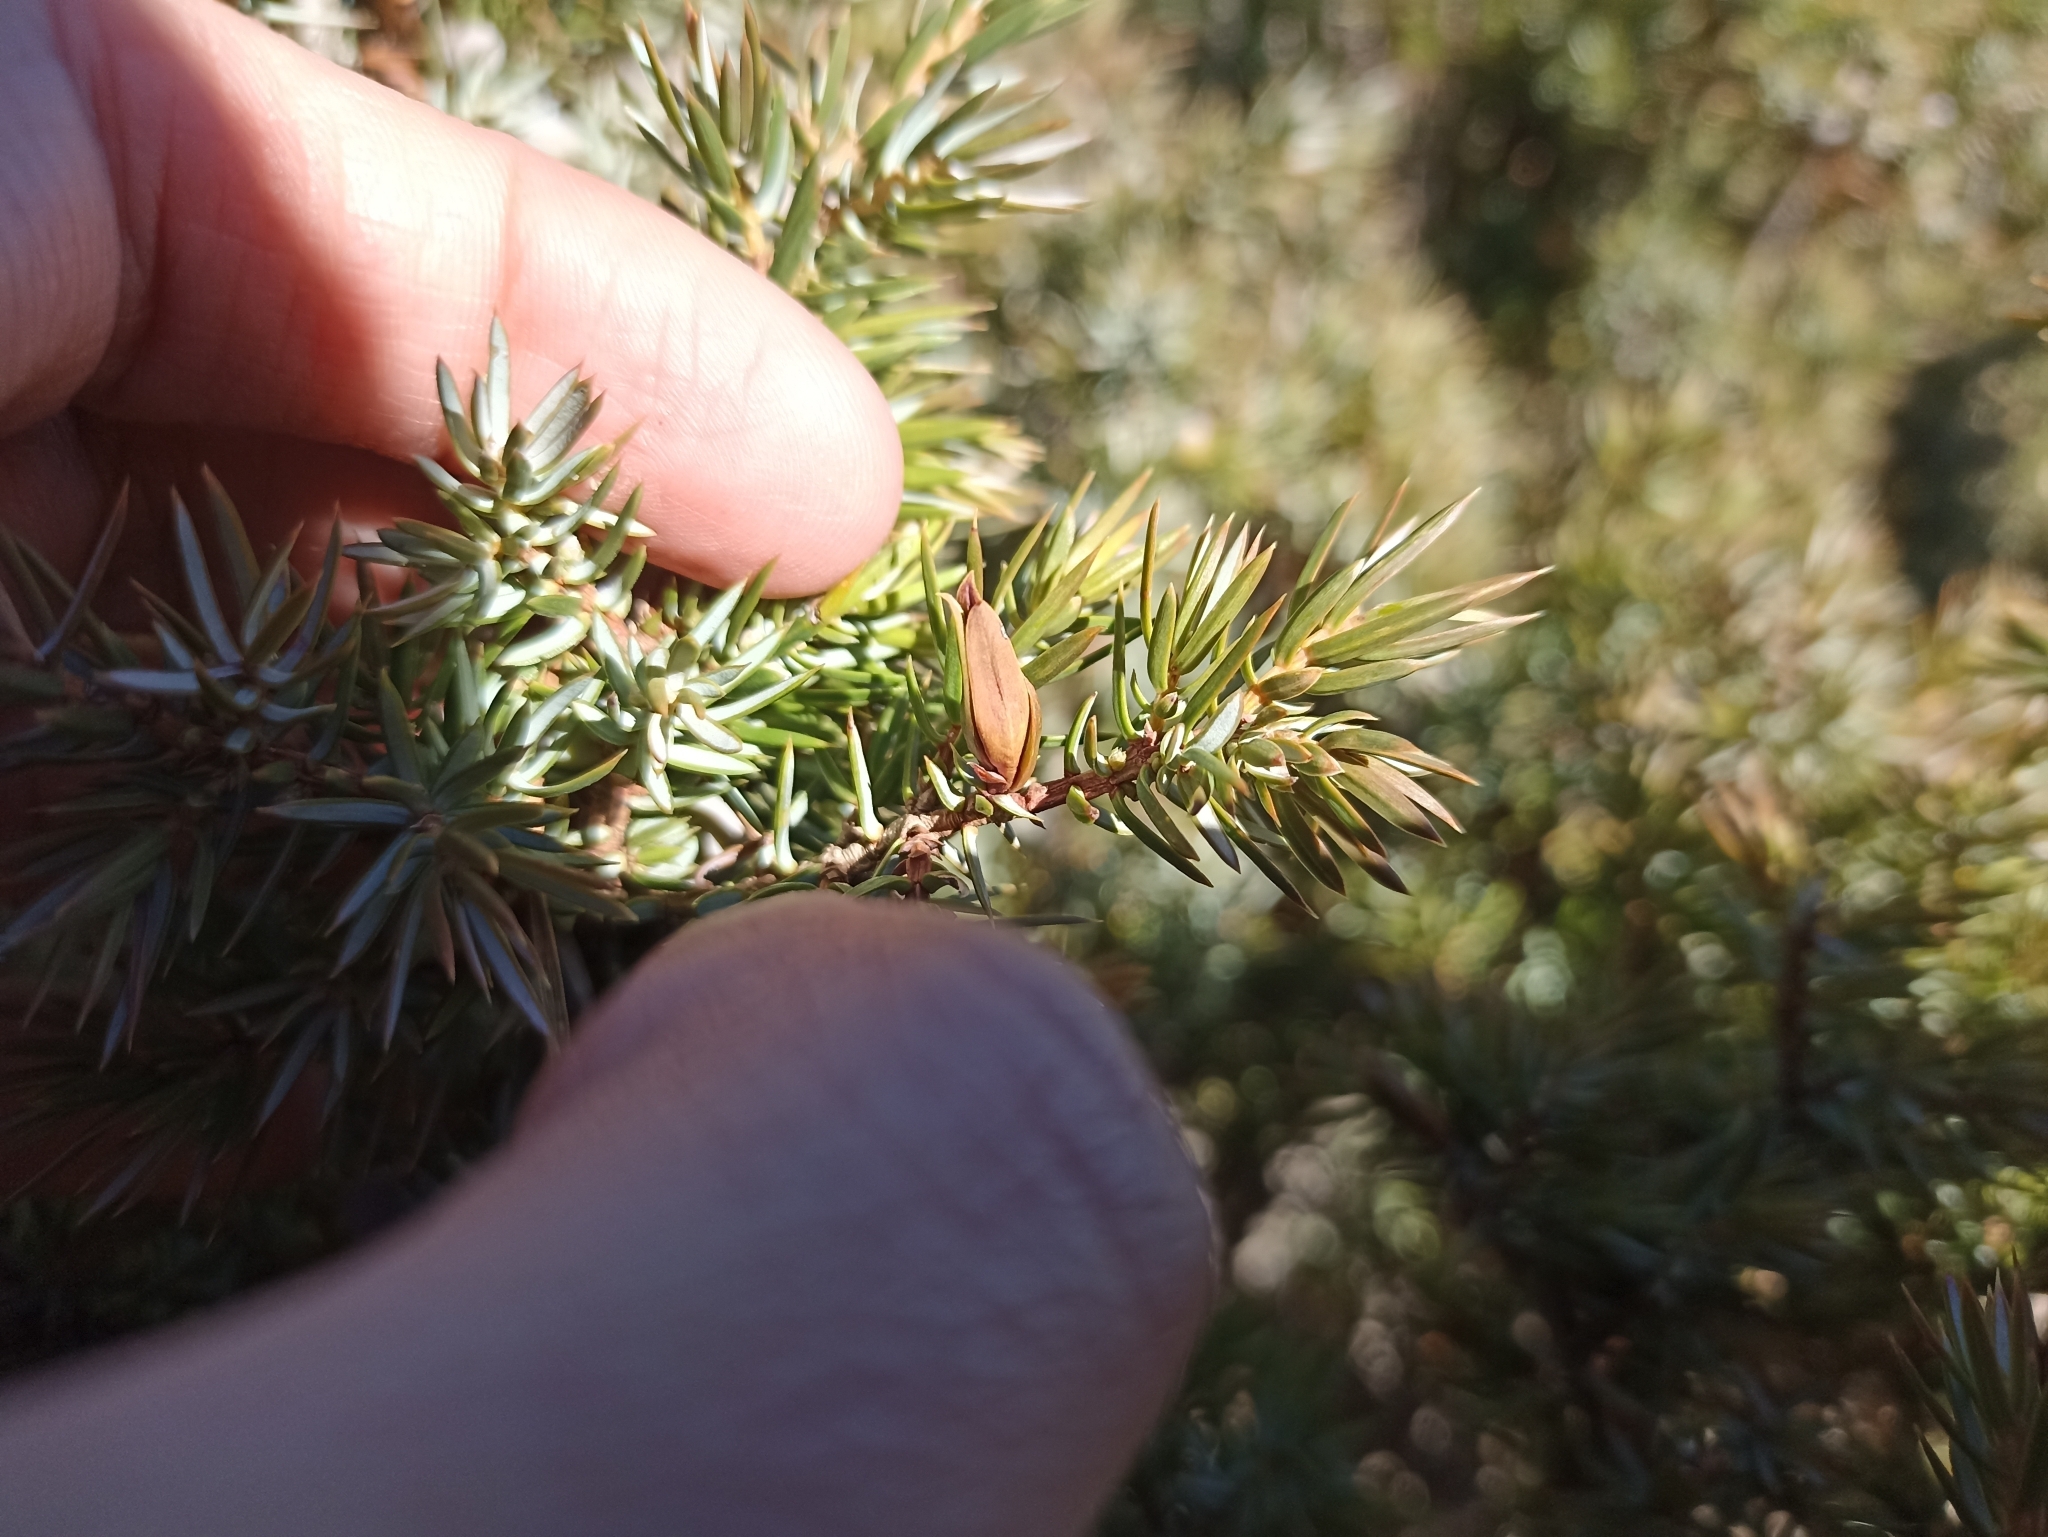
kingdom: Animalia
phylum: Arthropoda
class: Insecta
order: Diptera
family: Cecidomyiidae
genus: Oligotrophus
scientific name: Oligotrophus juniperinus
